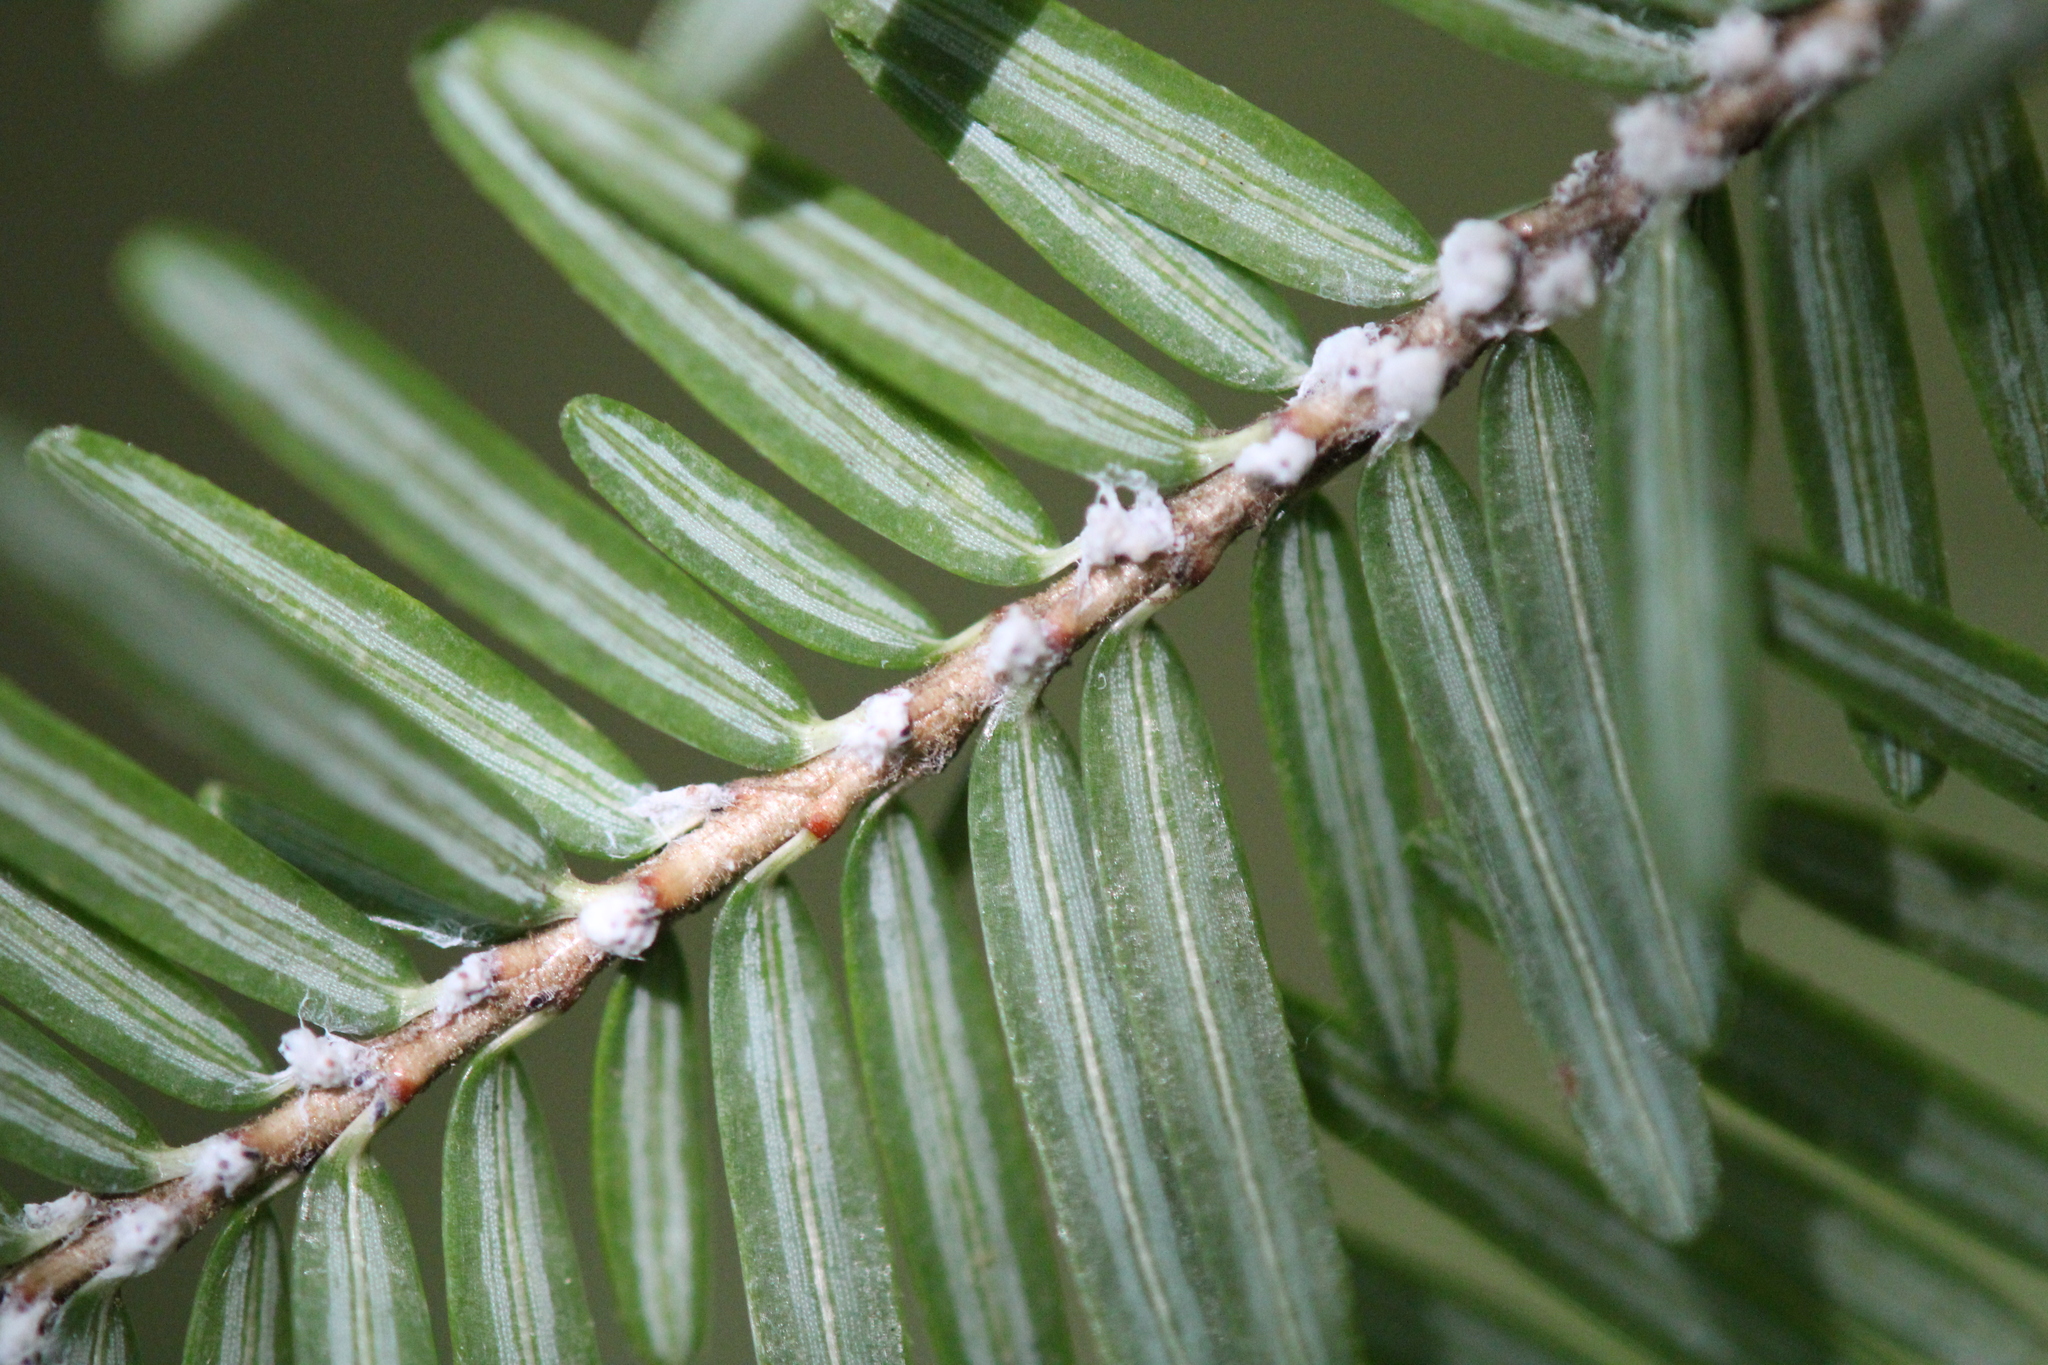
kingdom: Animalia
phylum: Arthropoda
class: Insecta
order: Hemiptera
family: Adelgidae
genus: Adelges
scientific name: Adelges tsugae
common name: Hemlock woolly adelgid
